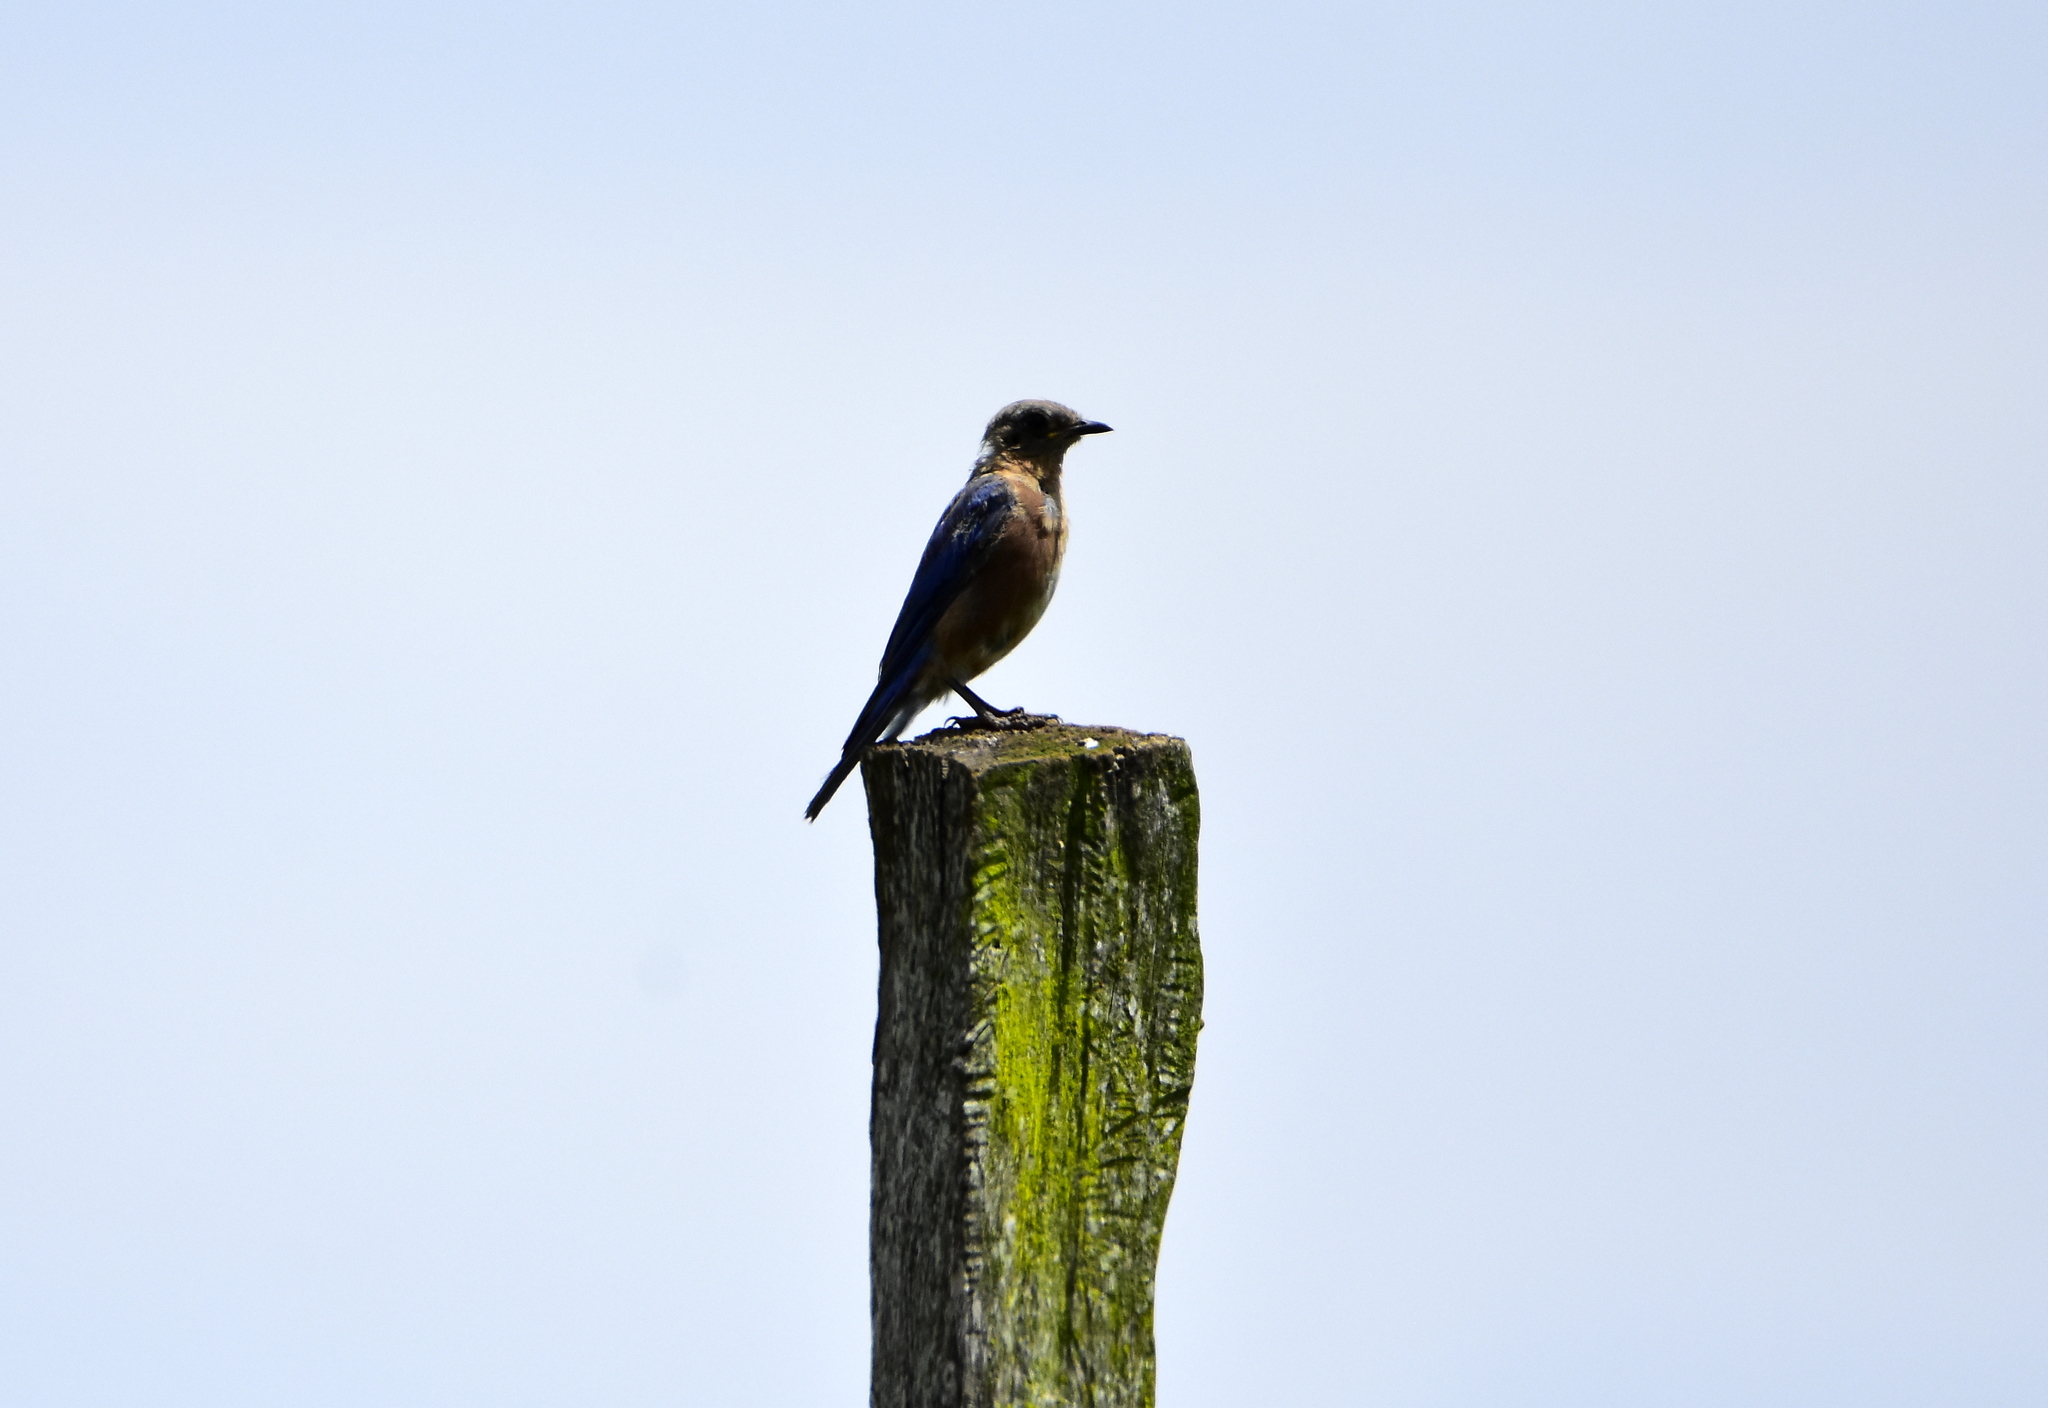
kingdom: Animalia
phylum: Chordata
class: Aves
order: Passeriformes
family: Turdidae
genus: Sialia
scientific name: Sialia sialis
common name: Eastern bluebird
